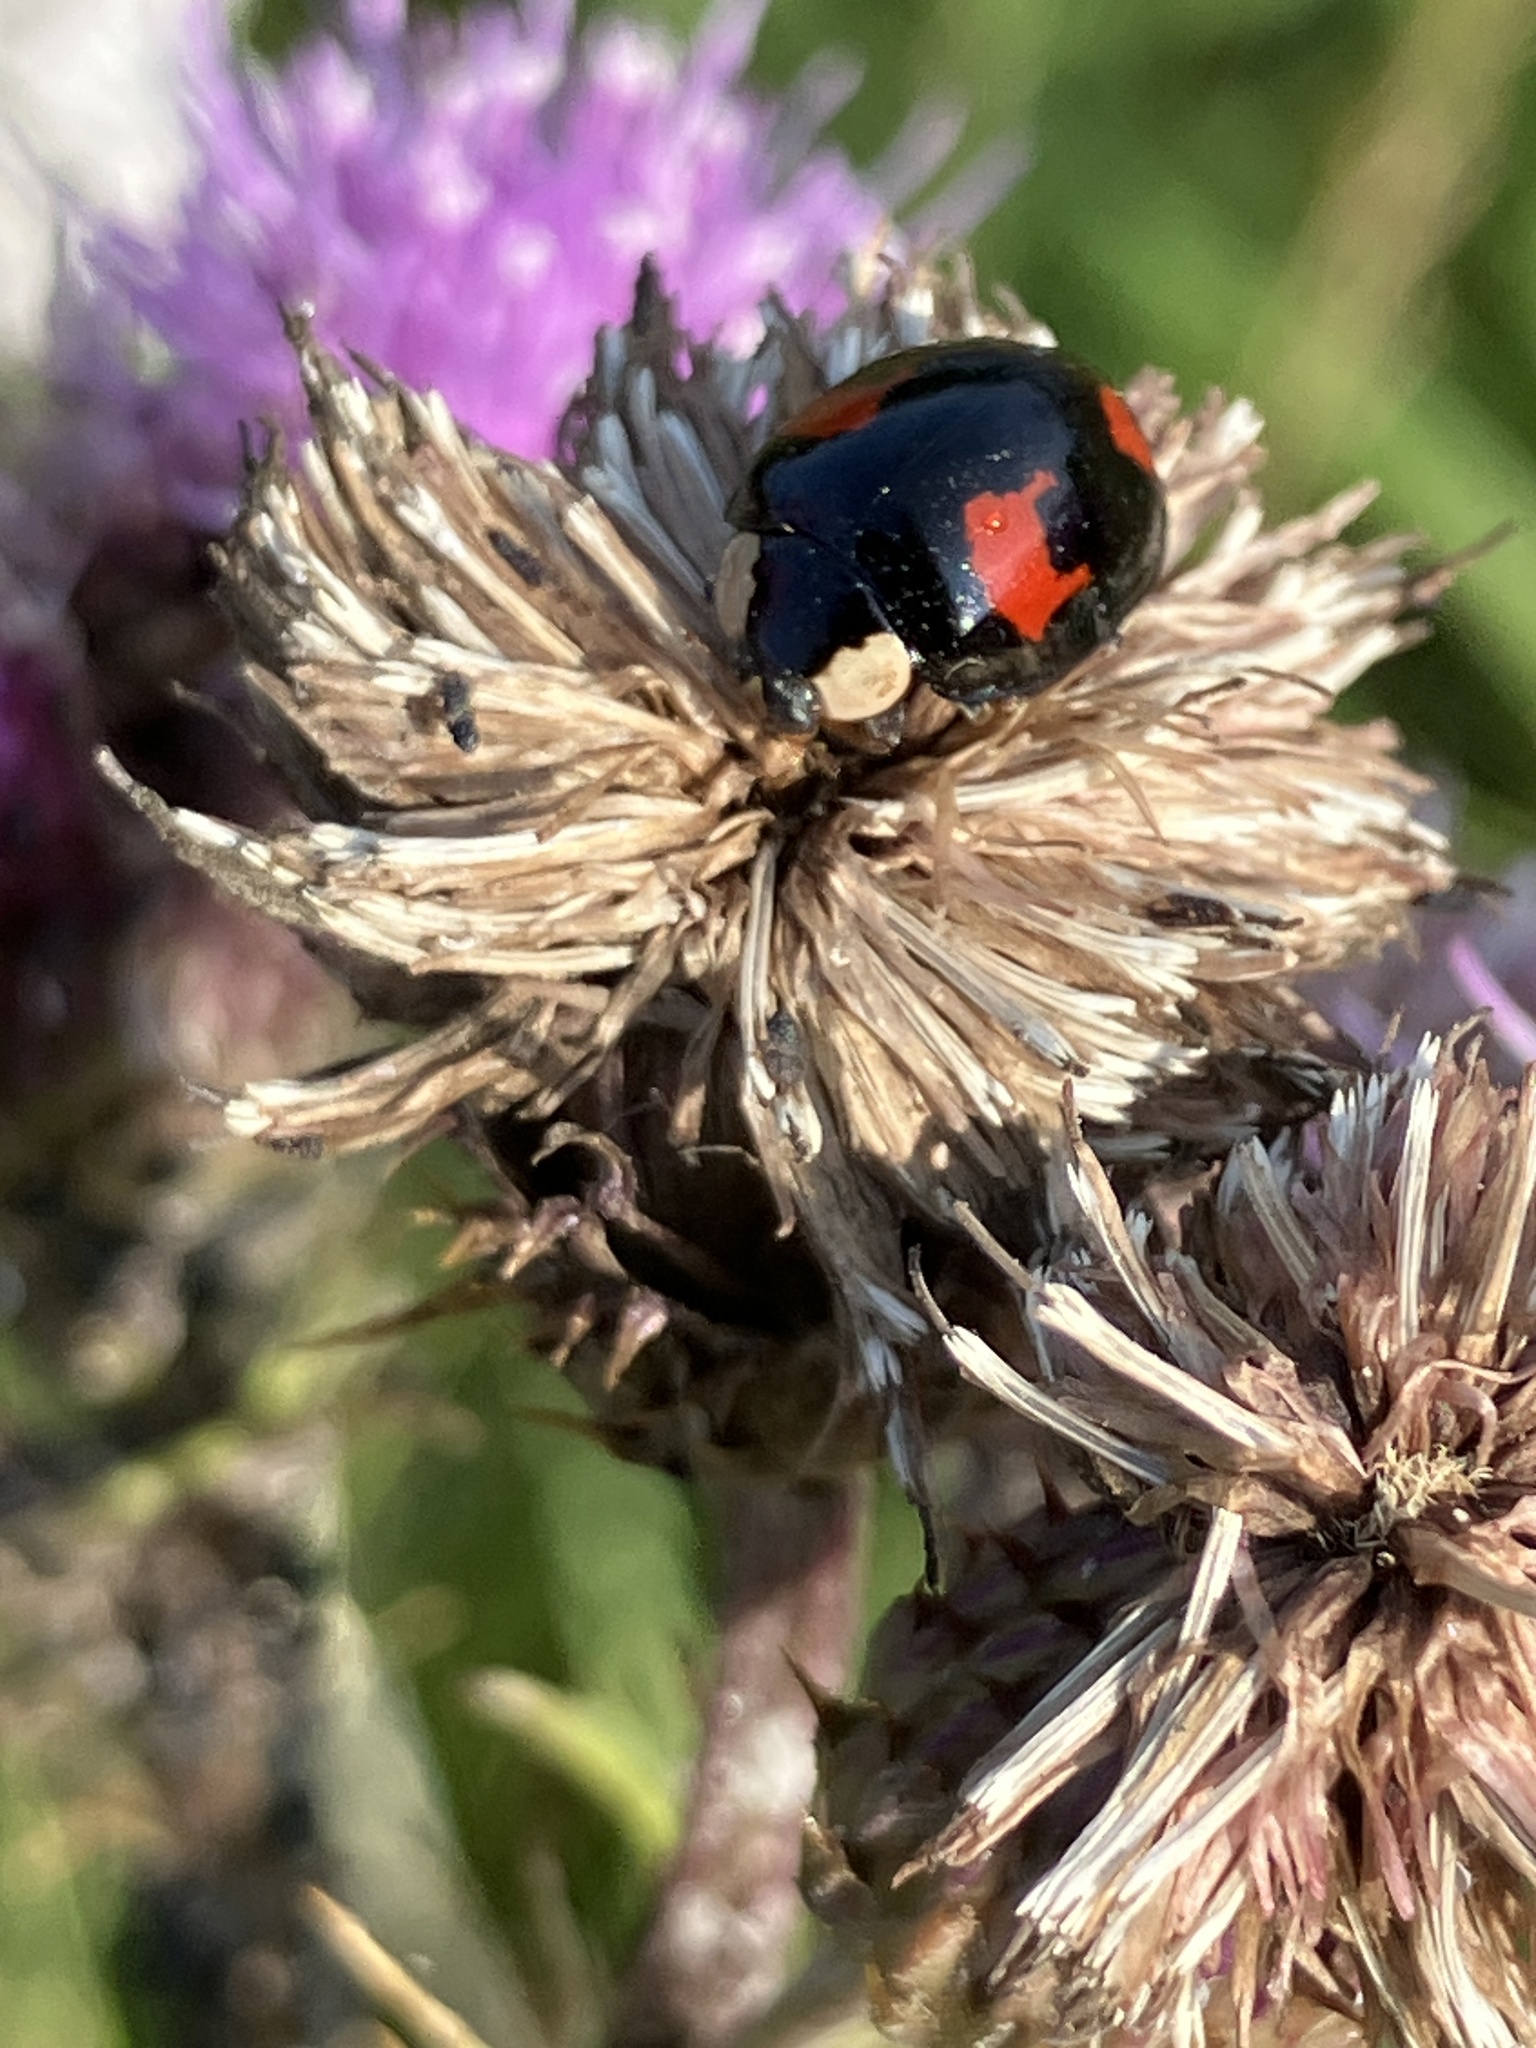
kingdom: Animalia
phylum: Arthropoda
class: Insecta
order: Coleoptera
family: Coccinellidae
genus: Harmonia
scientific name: Harmonia axyridis
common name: Harlequin ladybird
